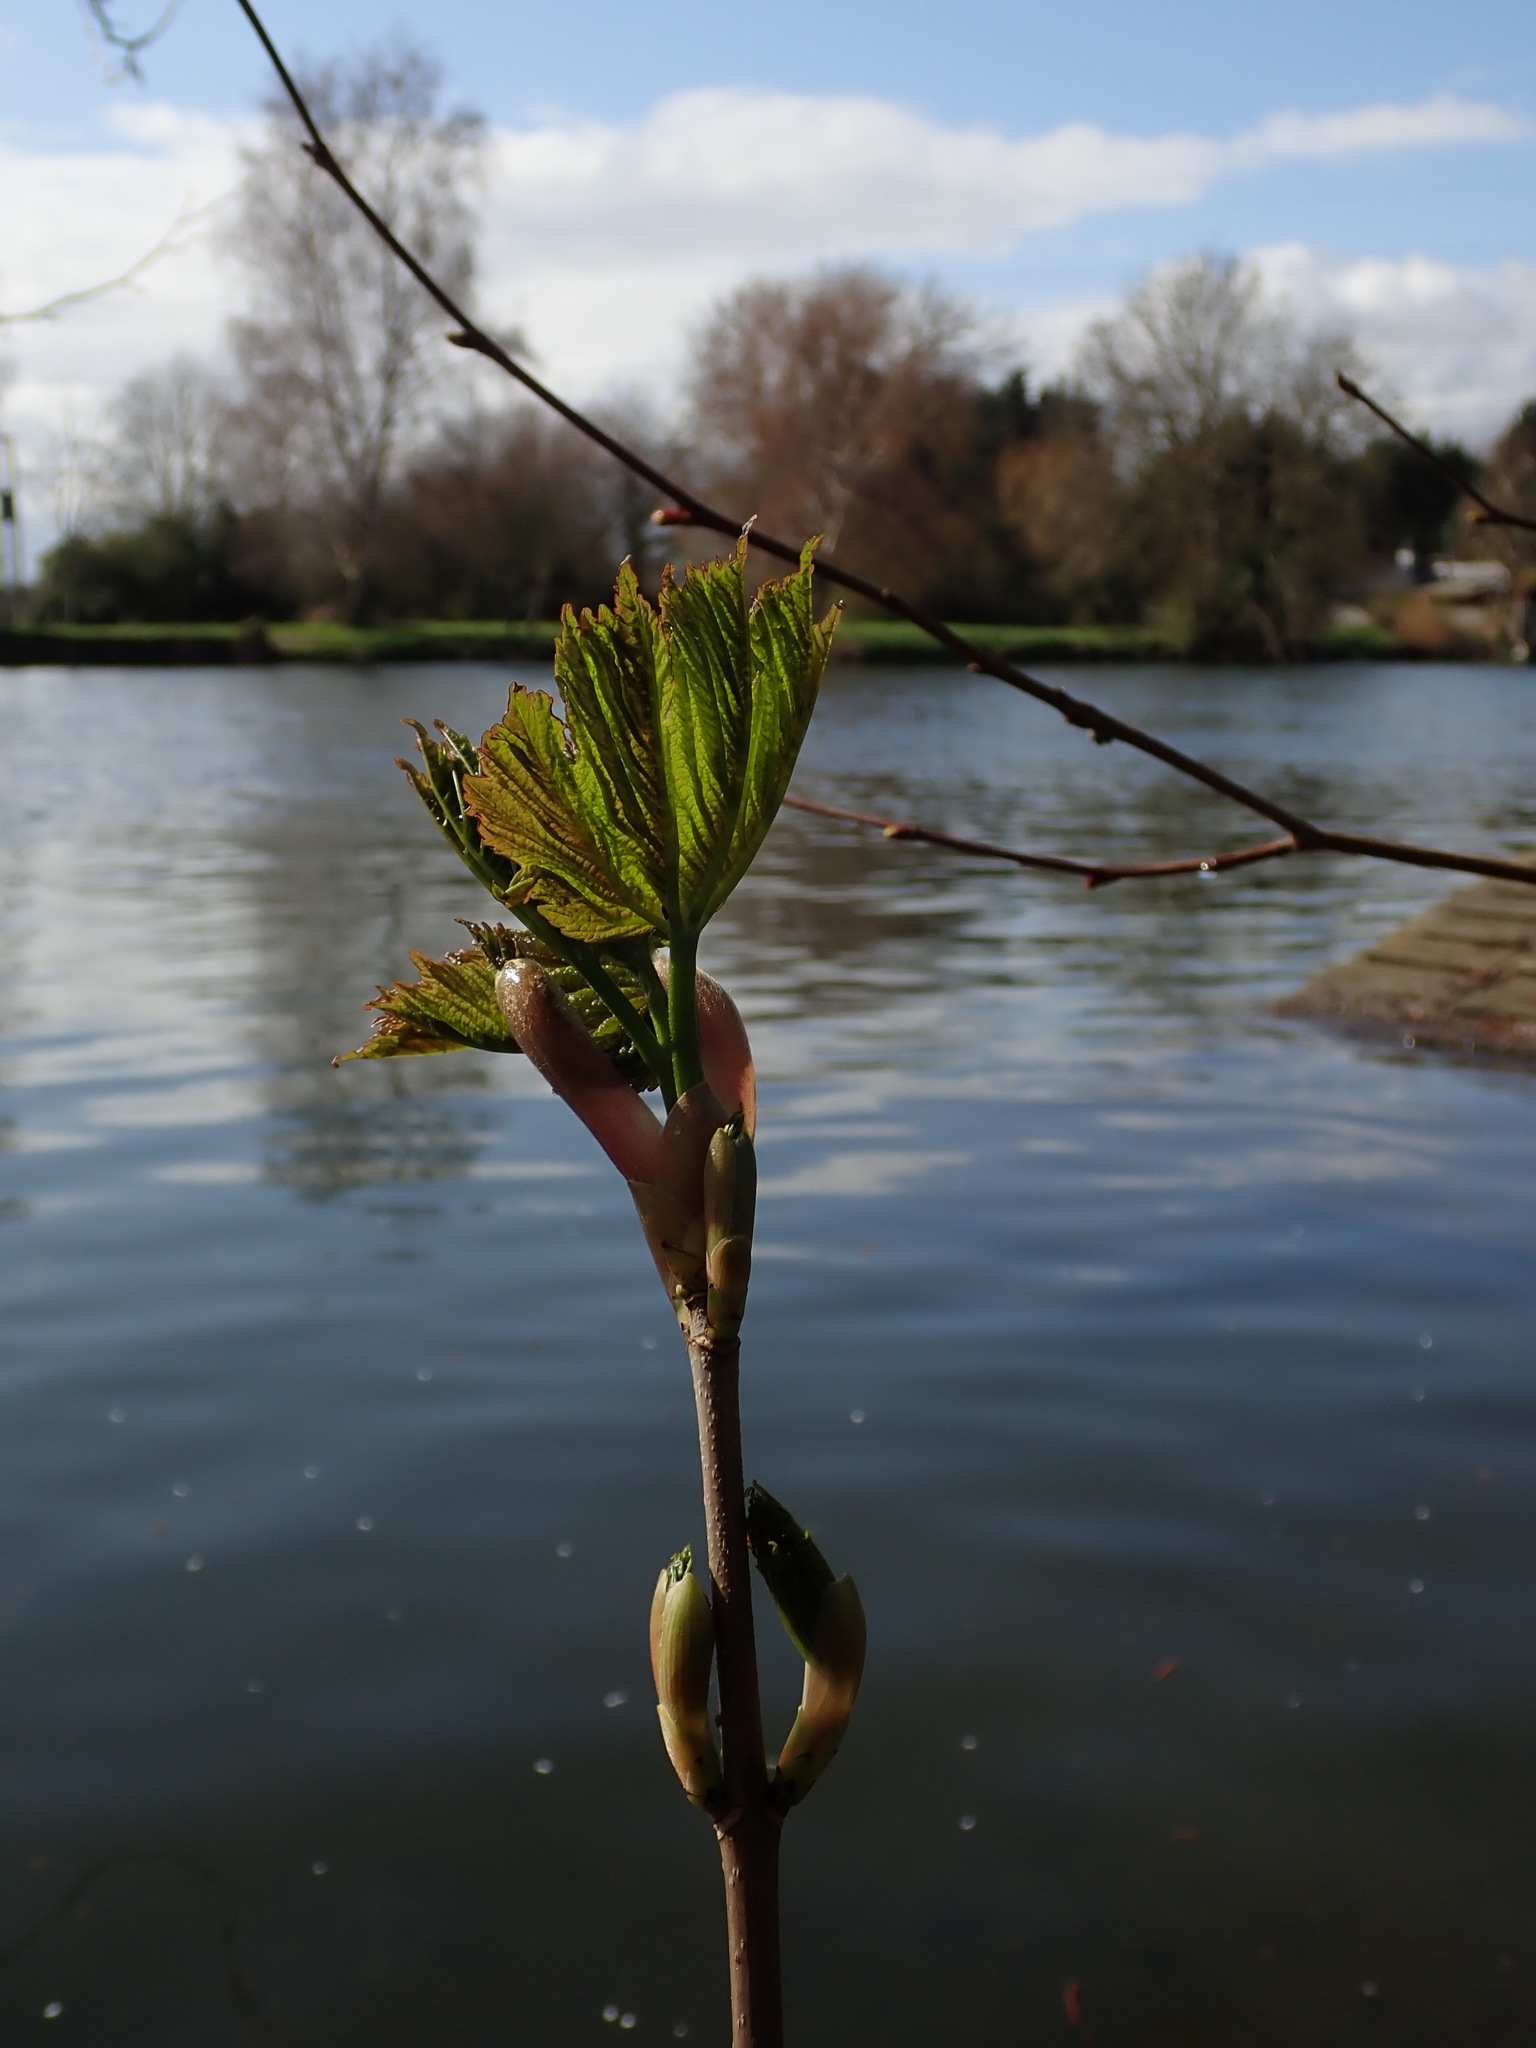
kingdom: Plantae
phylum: Tracheophyta
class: Magnoliopsida
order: Sapindales
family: Sapindaceae
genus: Acer
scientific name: Acer pseudoplatanus
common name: Sycamore
